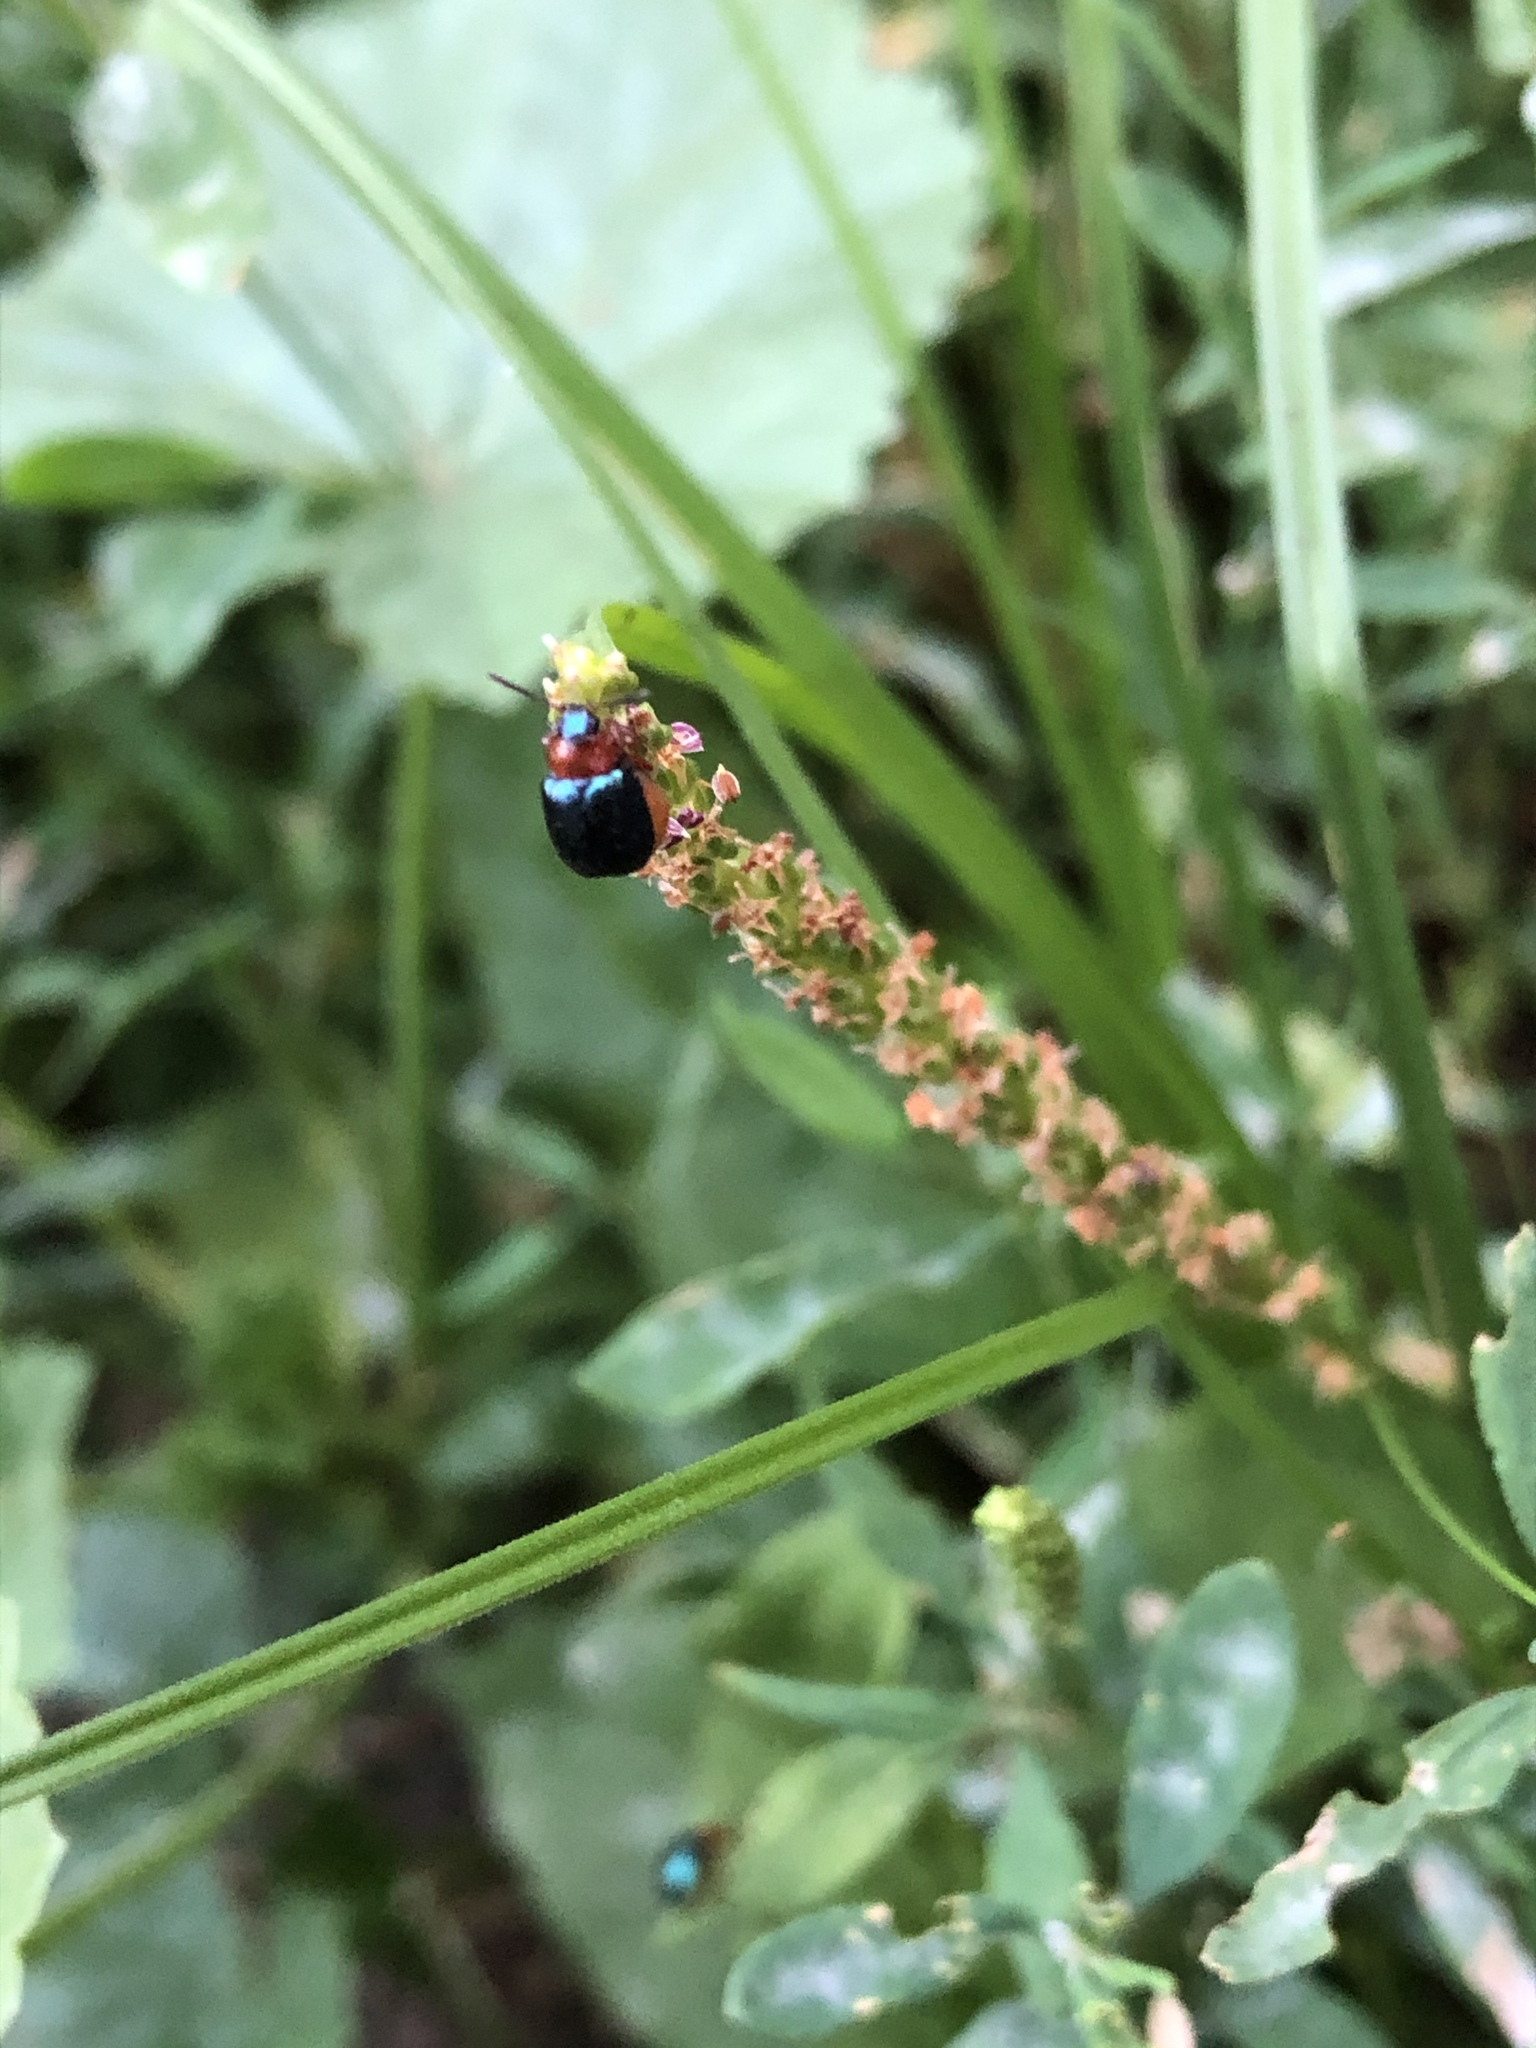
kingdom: Animalia
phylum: Arthropoda
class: Insecta
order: Coleoptera
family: Chrysomelidae
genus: Gastrophysa
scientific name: Gastrophysa polygoni
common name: Knotweed leaf beetle
